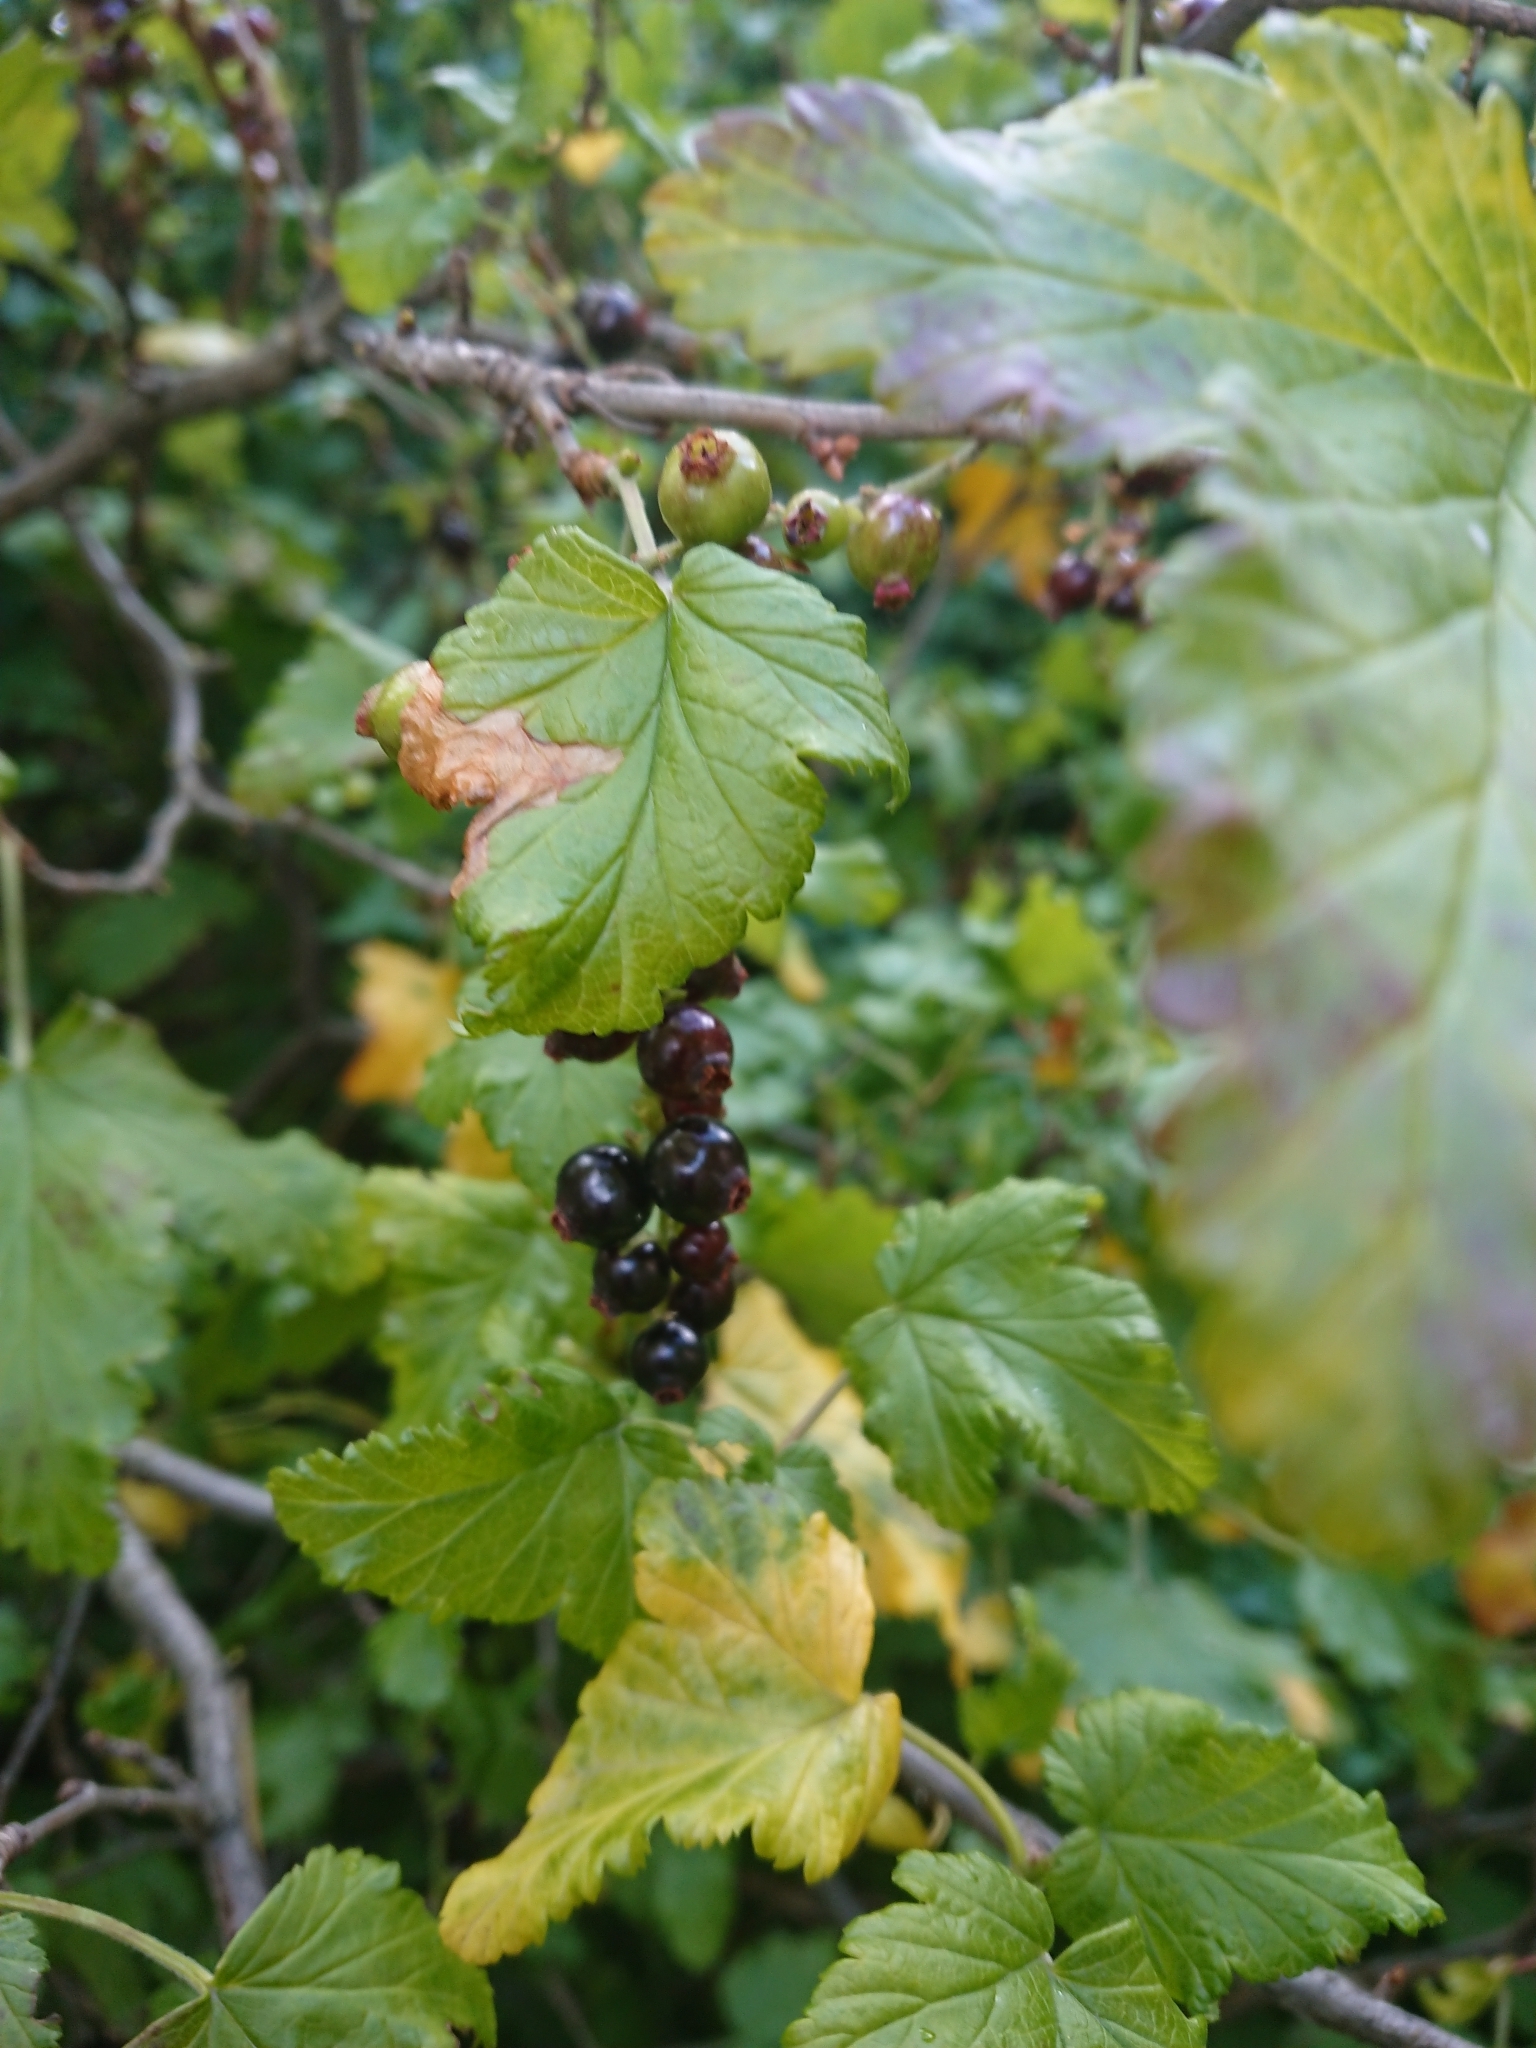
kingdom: Plantae
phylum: Tracheophyta
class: Magnoliopsida
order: Saxifragales
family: Grossulariaceae
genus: Ribes
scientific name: Ribes magellanicum
